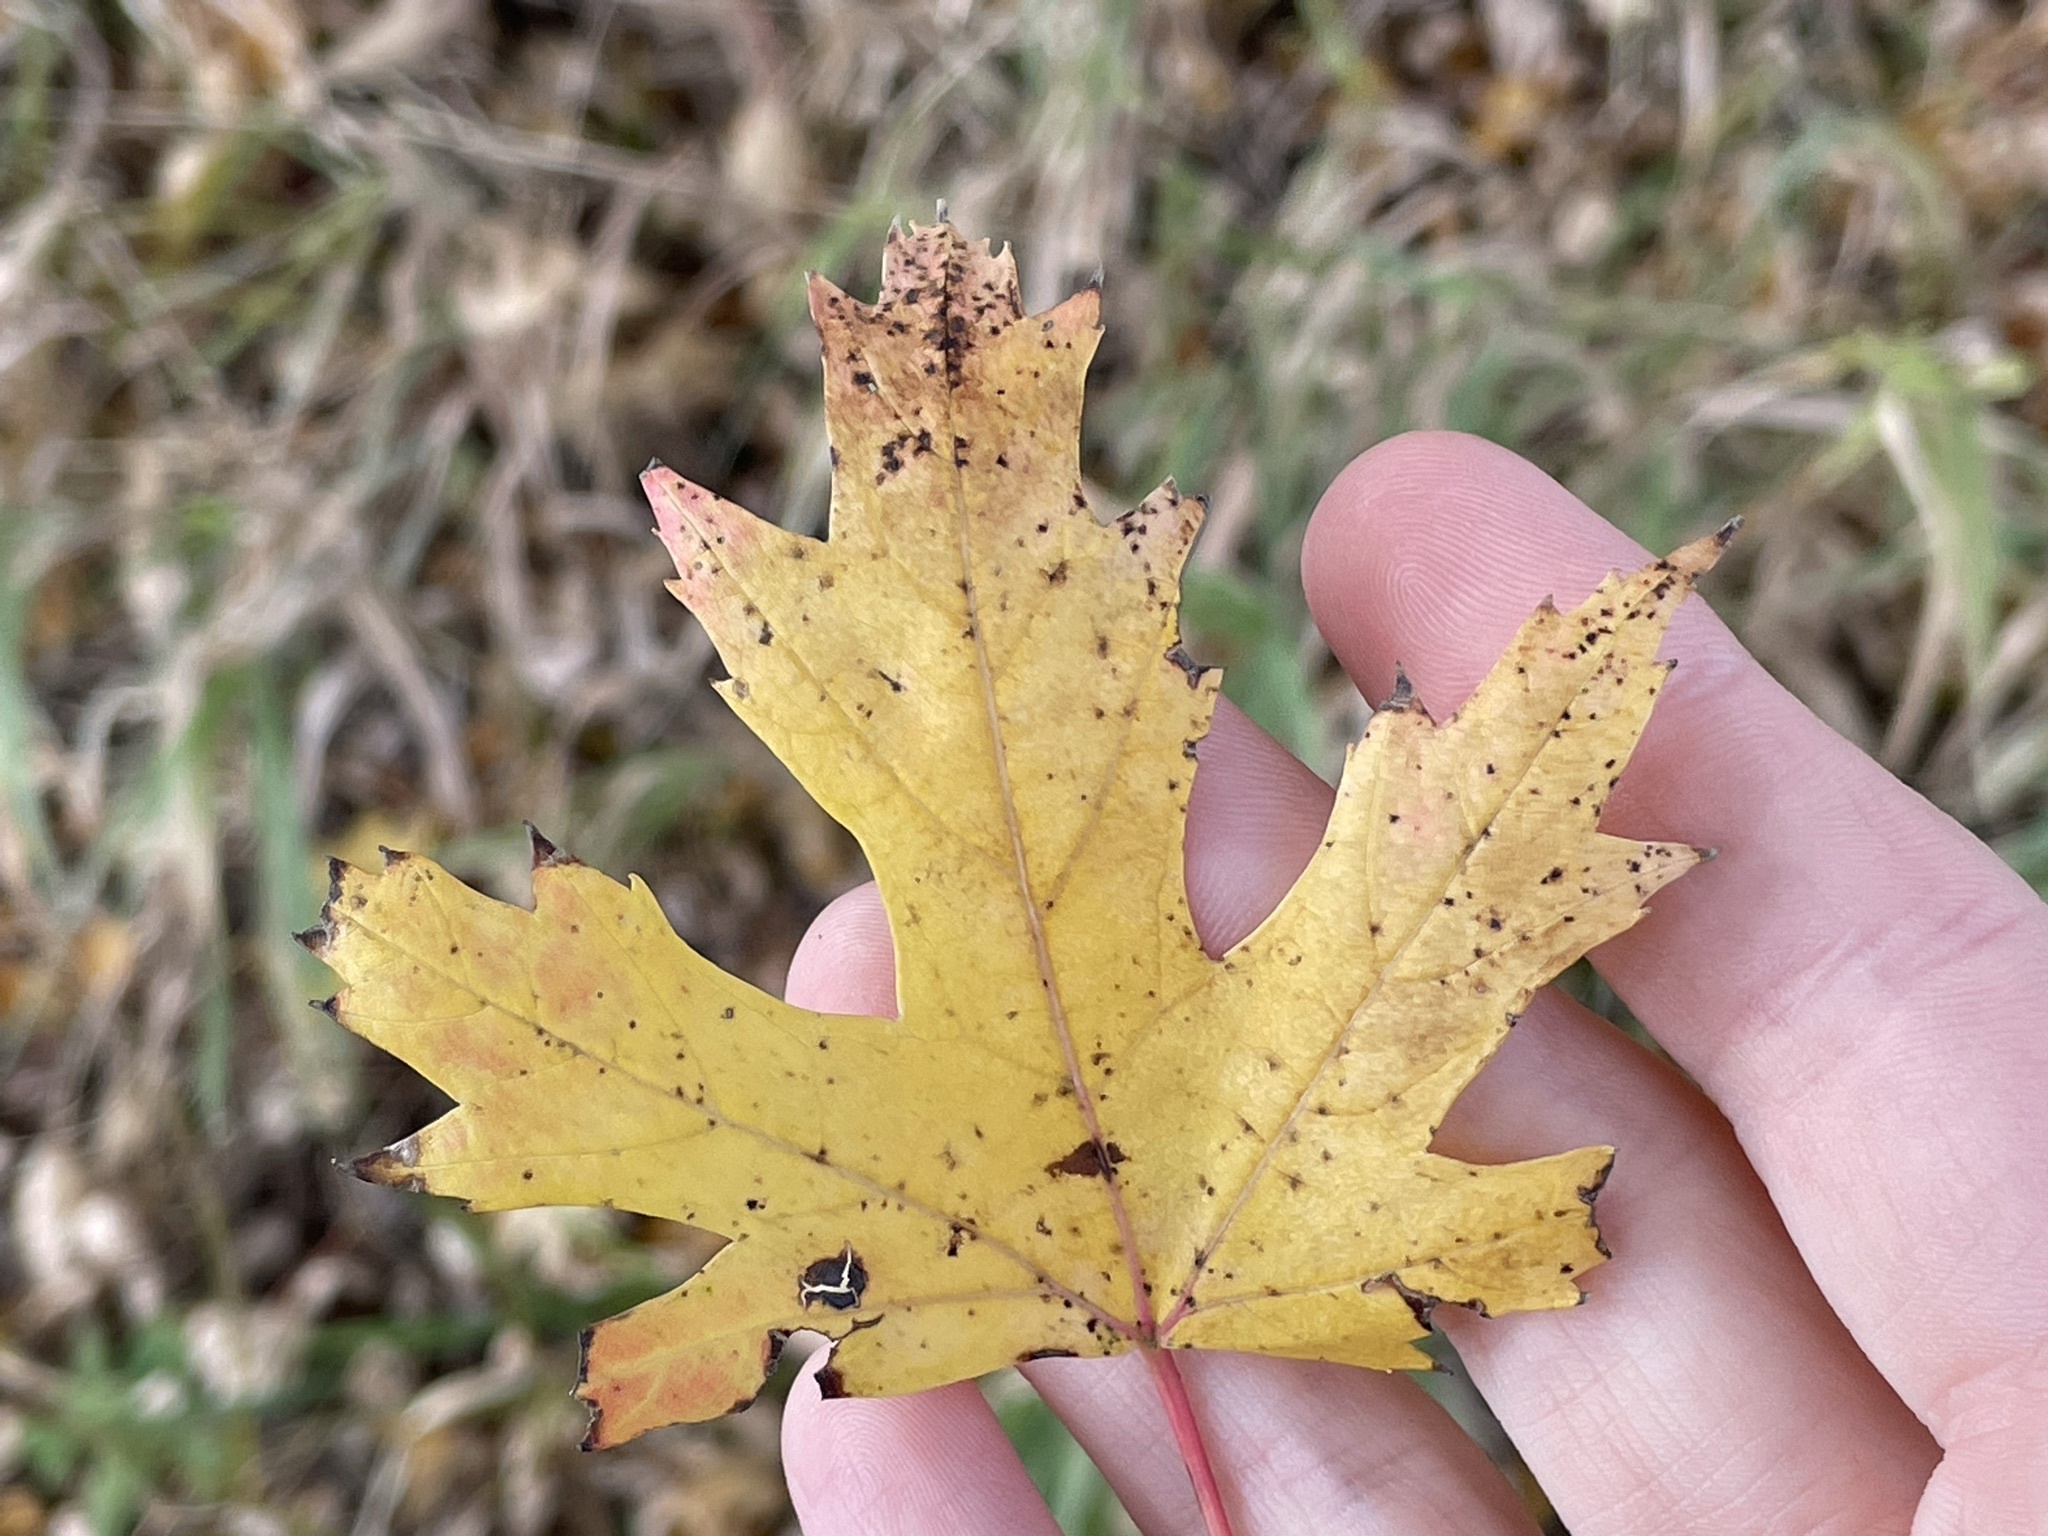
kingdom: Plantae
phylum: Tracheophyta
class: Magnoliopsida
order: Sapindales
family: Sapindaceae
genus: Acer
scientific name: Acer saccharinum
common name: Silver maple
